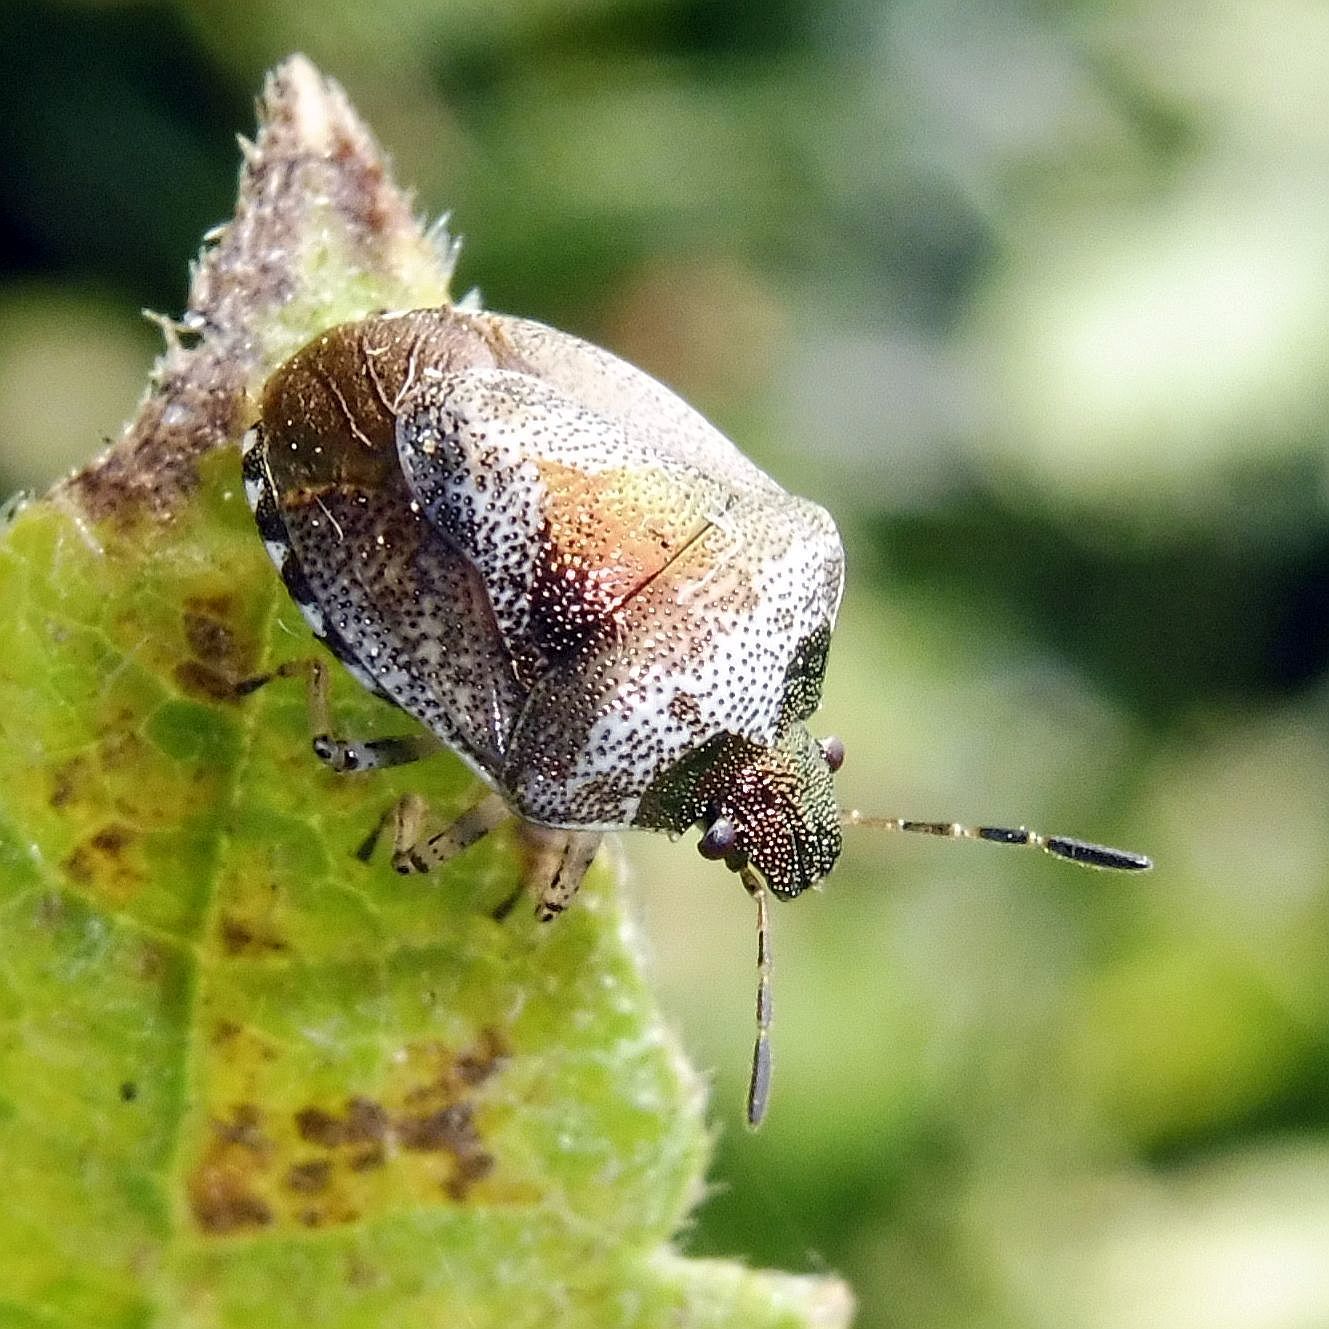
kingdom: Animalia
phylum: Arthropoda
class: Insecta
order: Hemiptera
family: Pentatomidae
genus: Eysarcoris
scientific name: Eysarcoris venustissimus
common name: Woundwort shieldbug
